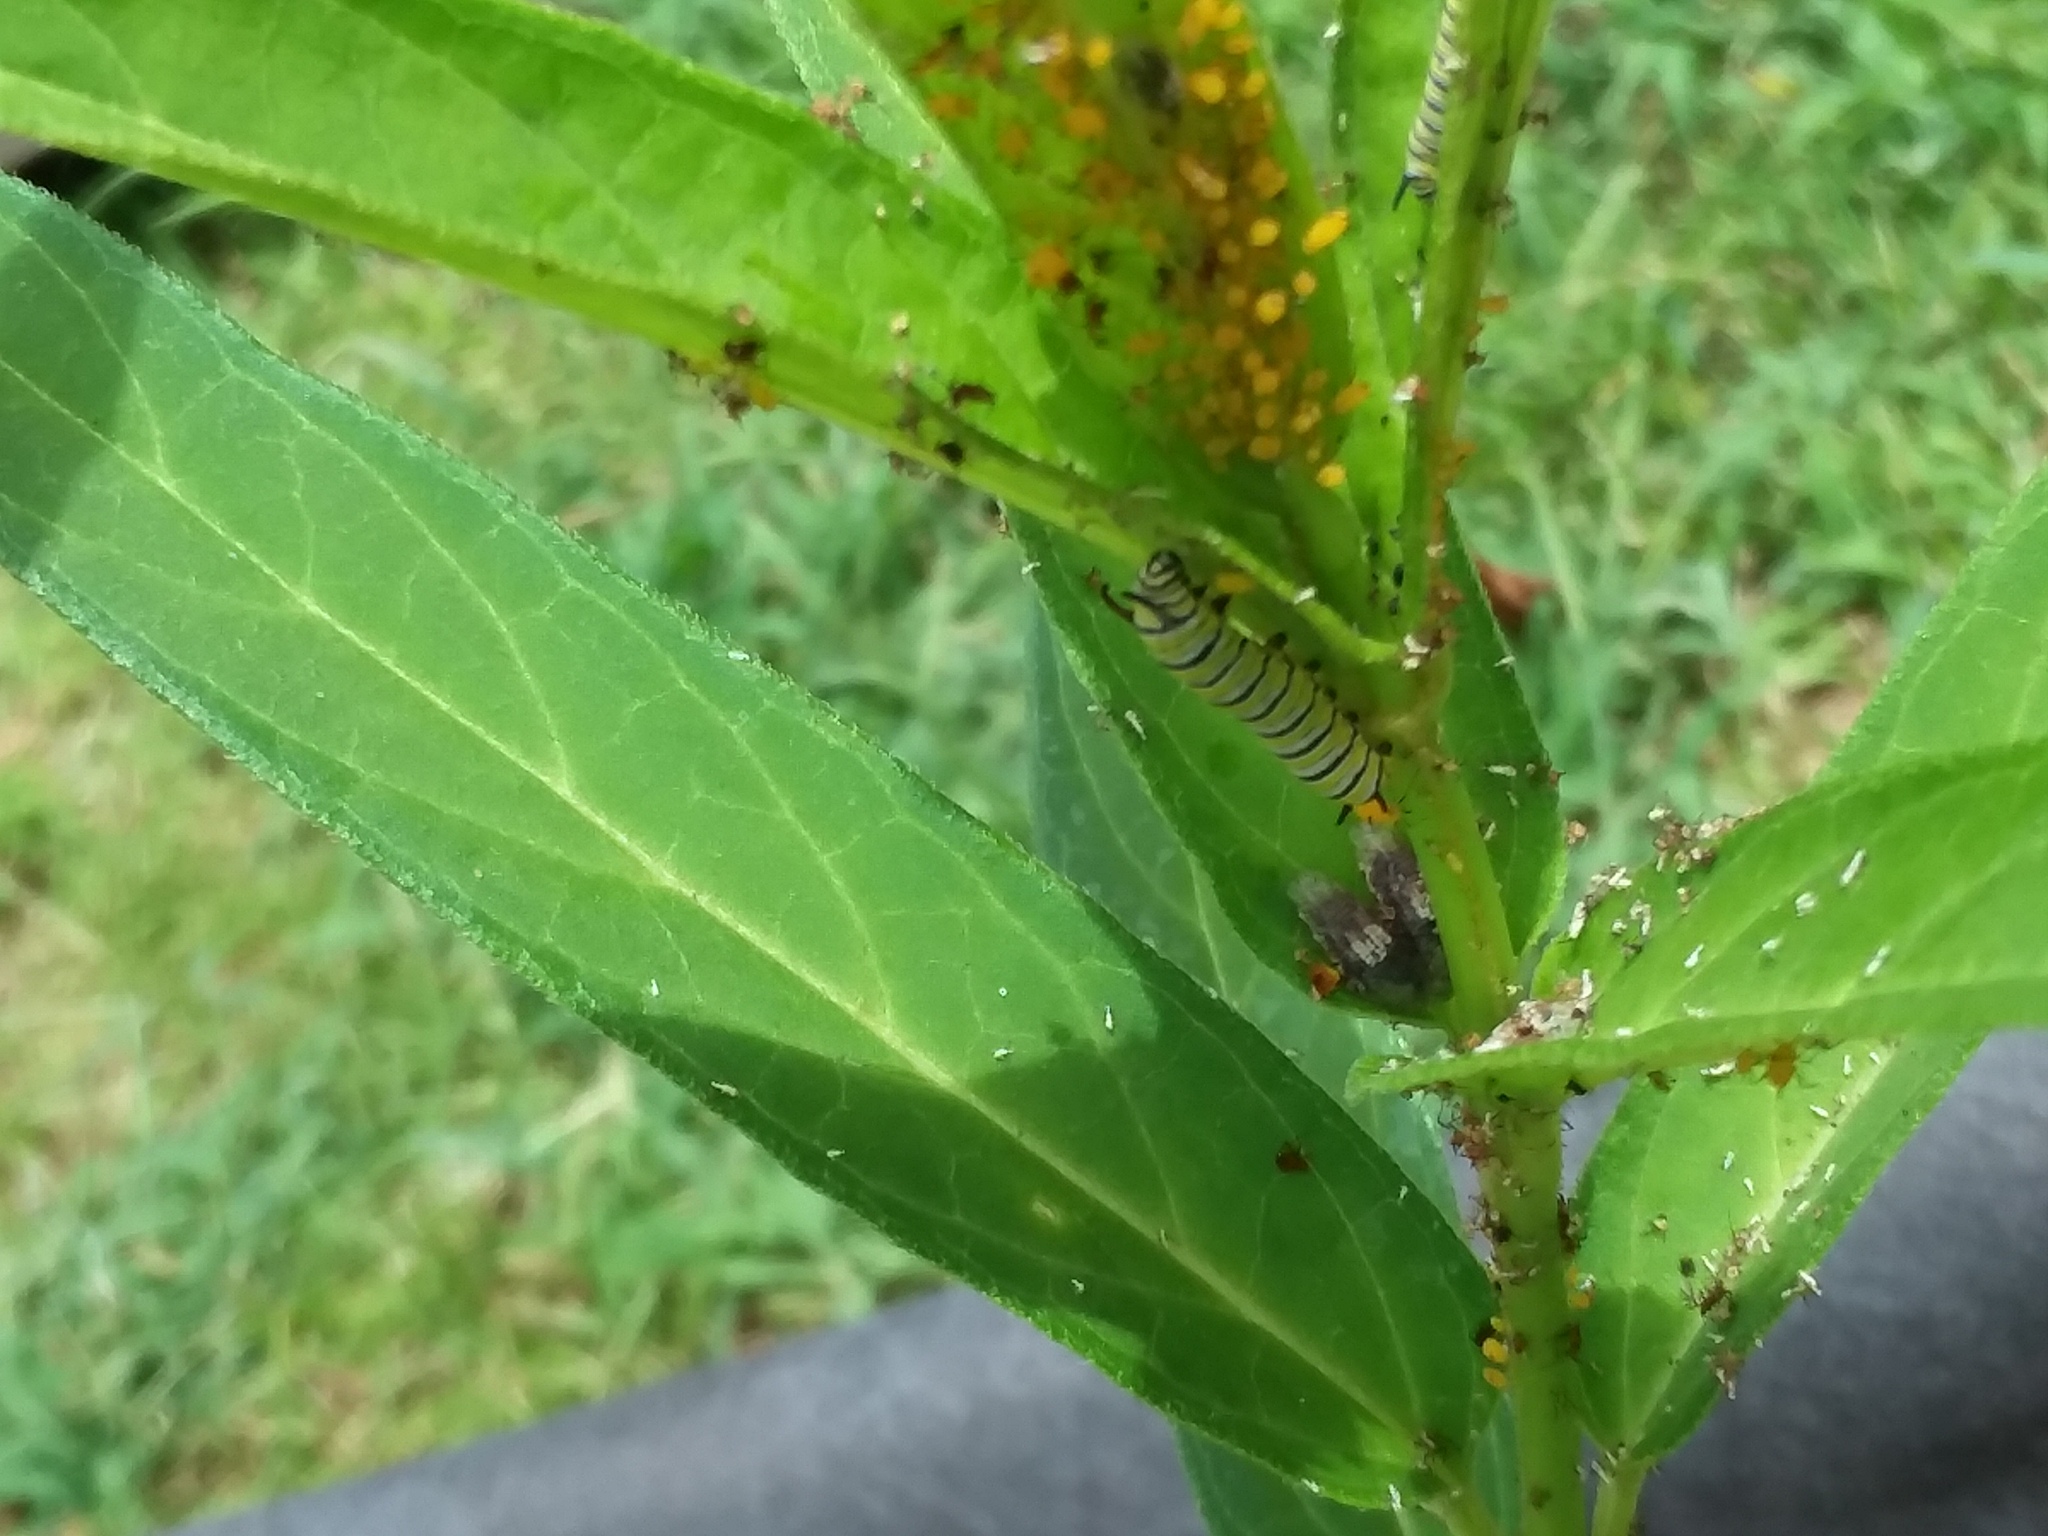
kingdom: Animalia
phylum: Arthropoda
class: Insecta
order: Lepidoptera
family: Nymphalidae
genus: Danaus
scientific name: Danaus plexippus
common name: Monarch
